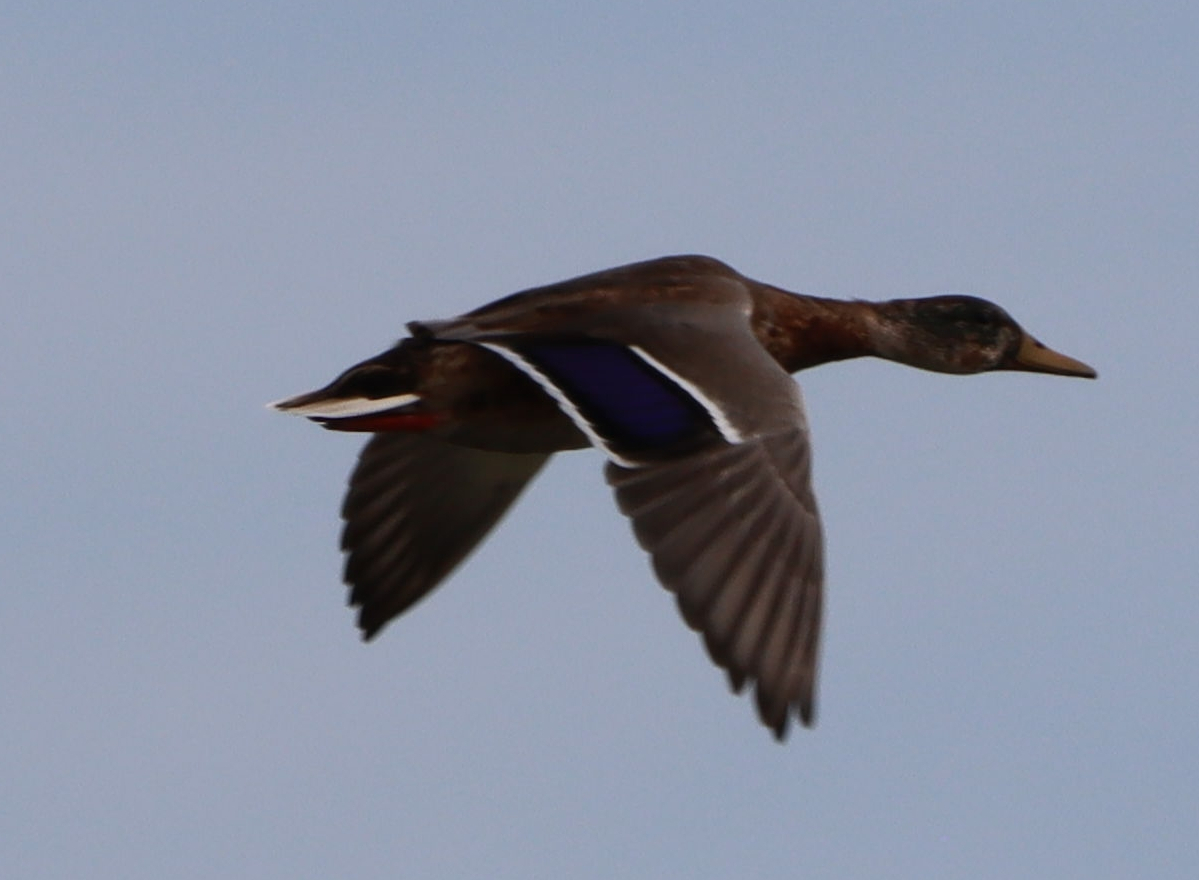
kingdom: Animalia
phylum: Chordata
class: Aves
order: Anseriformes
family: Anatidae
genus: Anas
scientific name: Anas platyrhynchos
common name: Mallard
